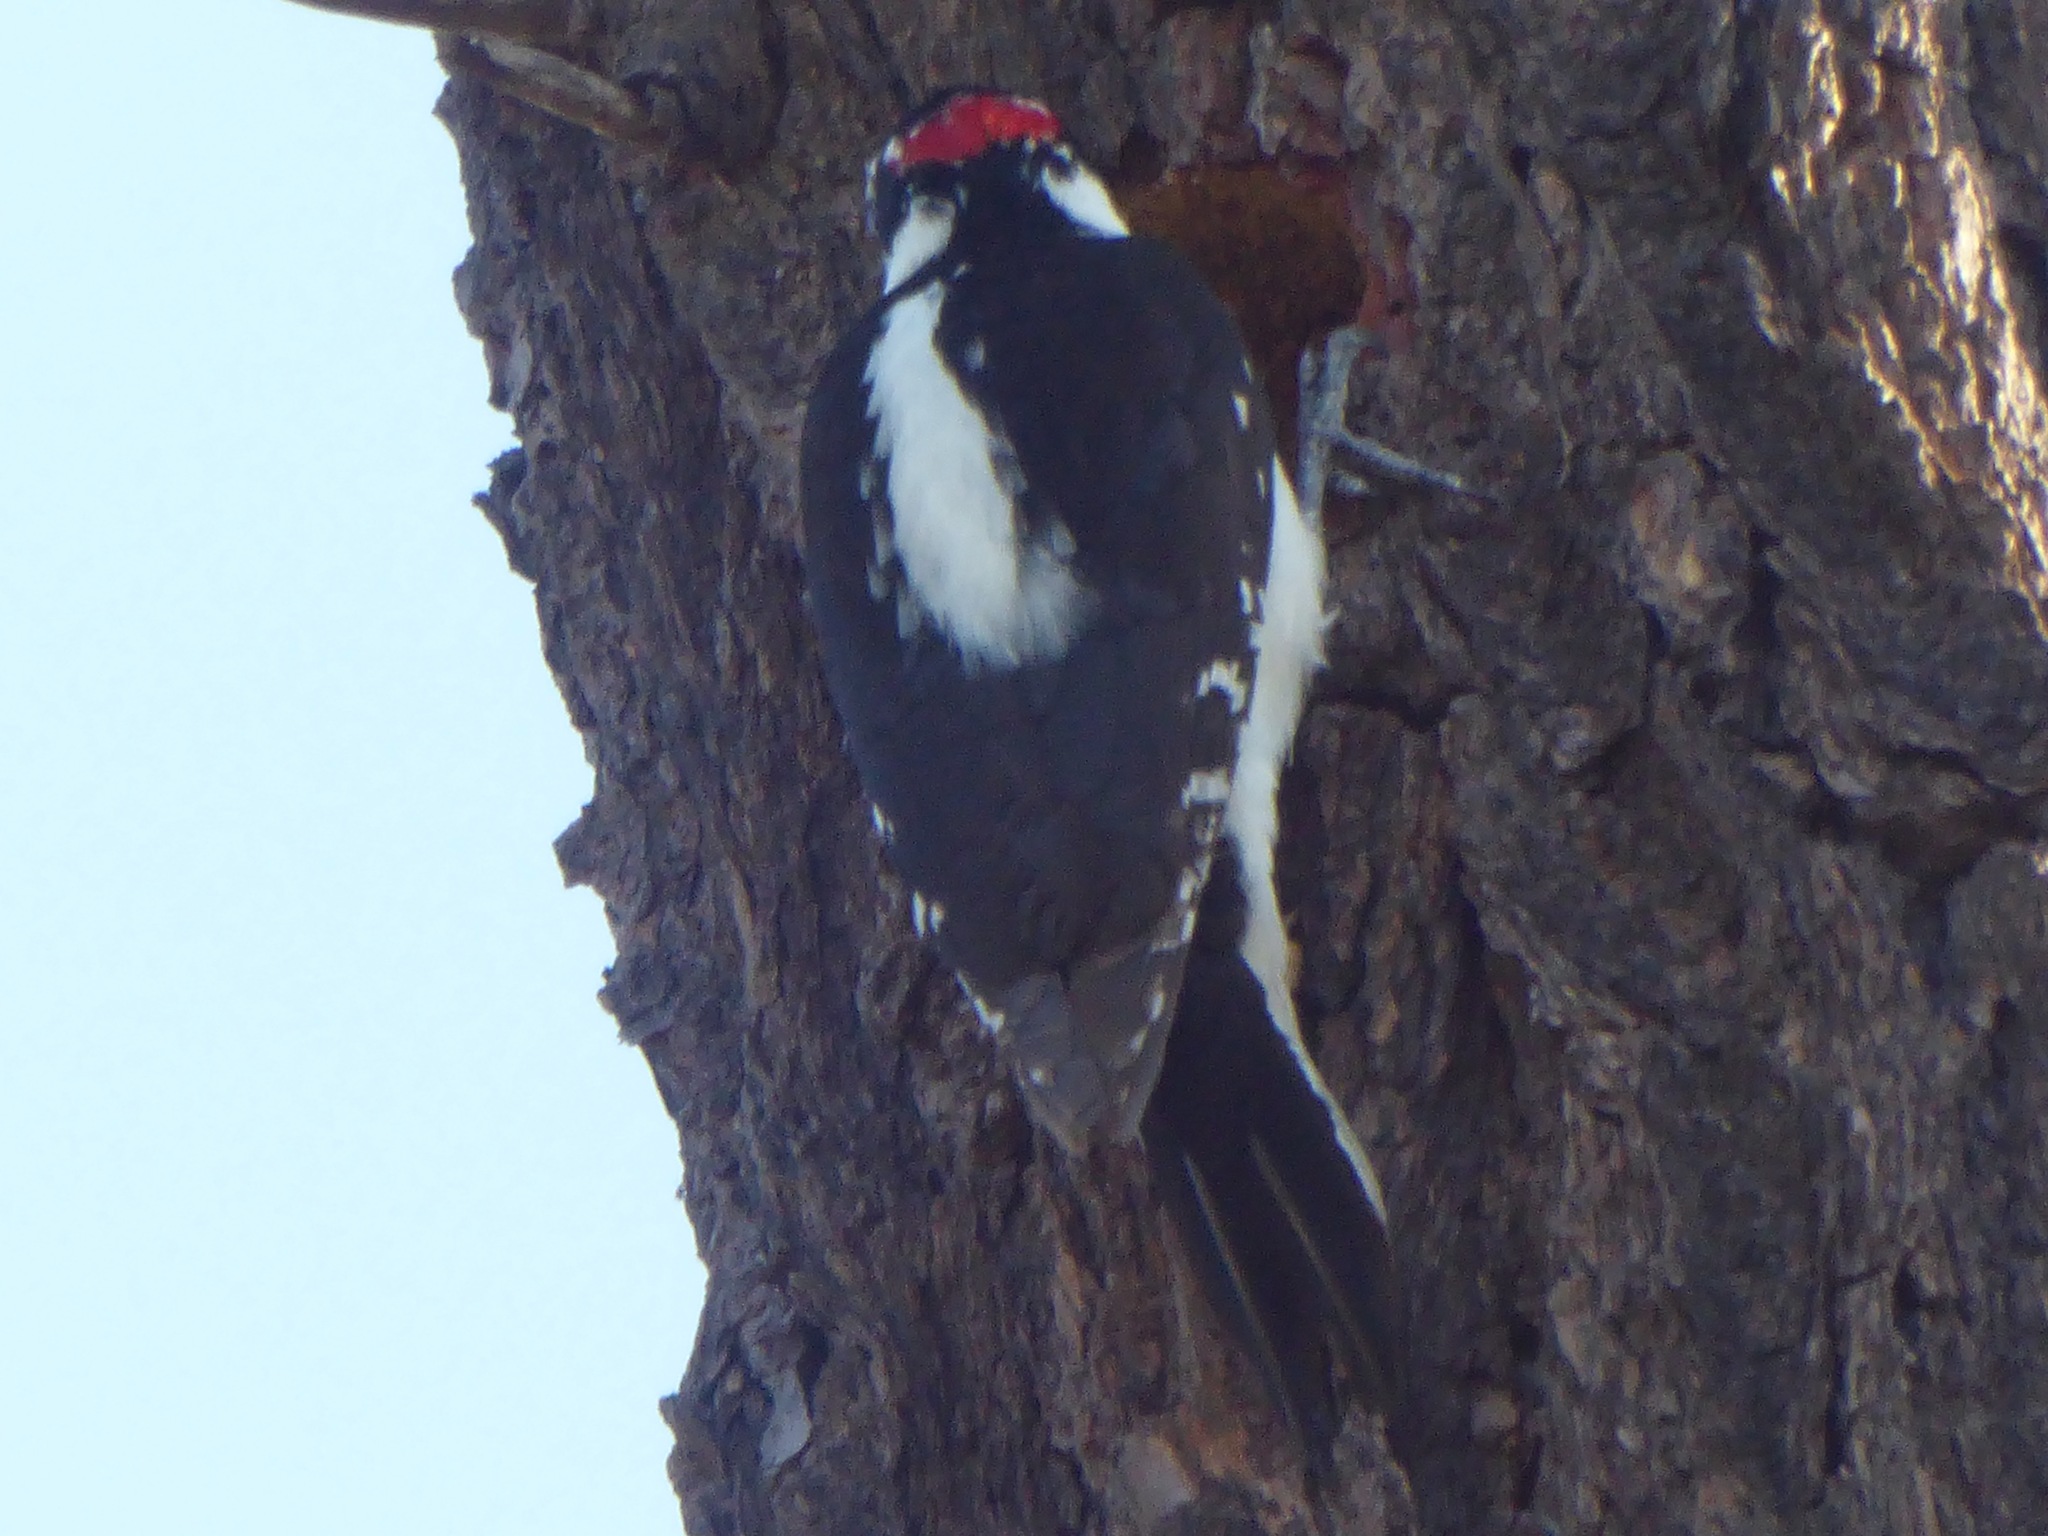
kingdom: Animalia
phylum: Chordata
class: Aves
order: Piciformes
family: Picidae
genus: Leuconotopicus
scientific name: Leuconotopicus villosus
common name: Hairy woodpecker
